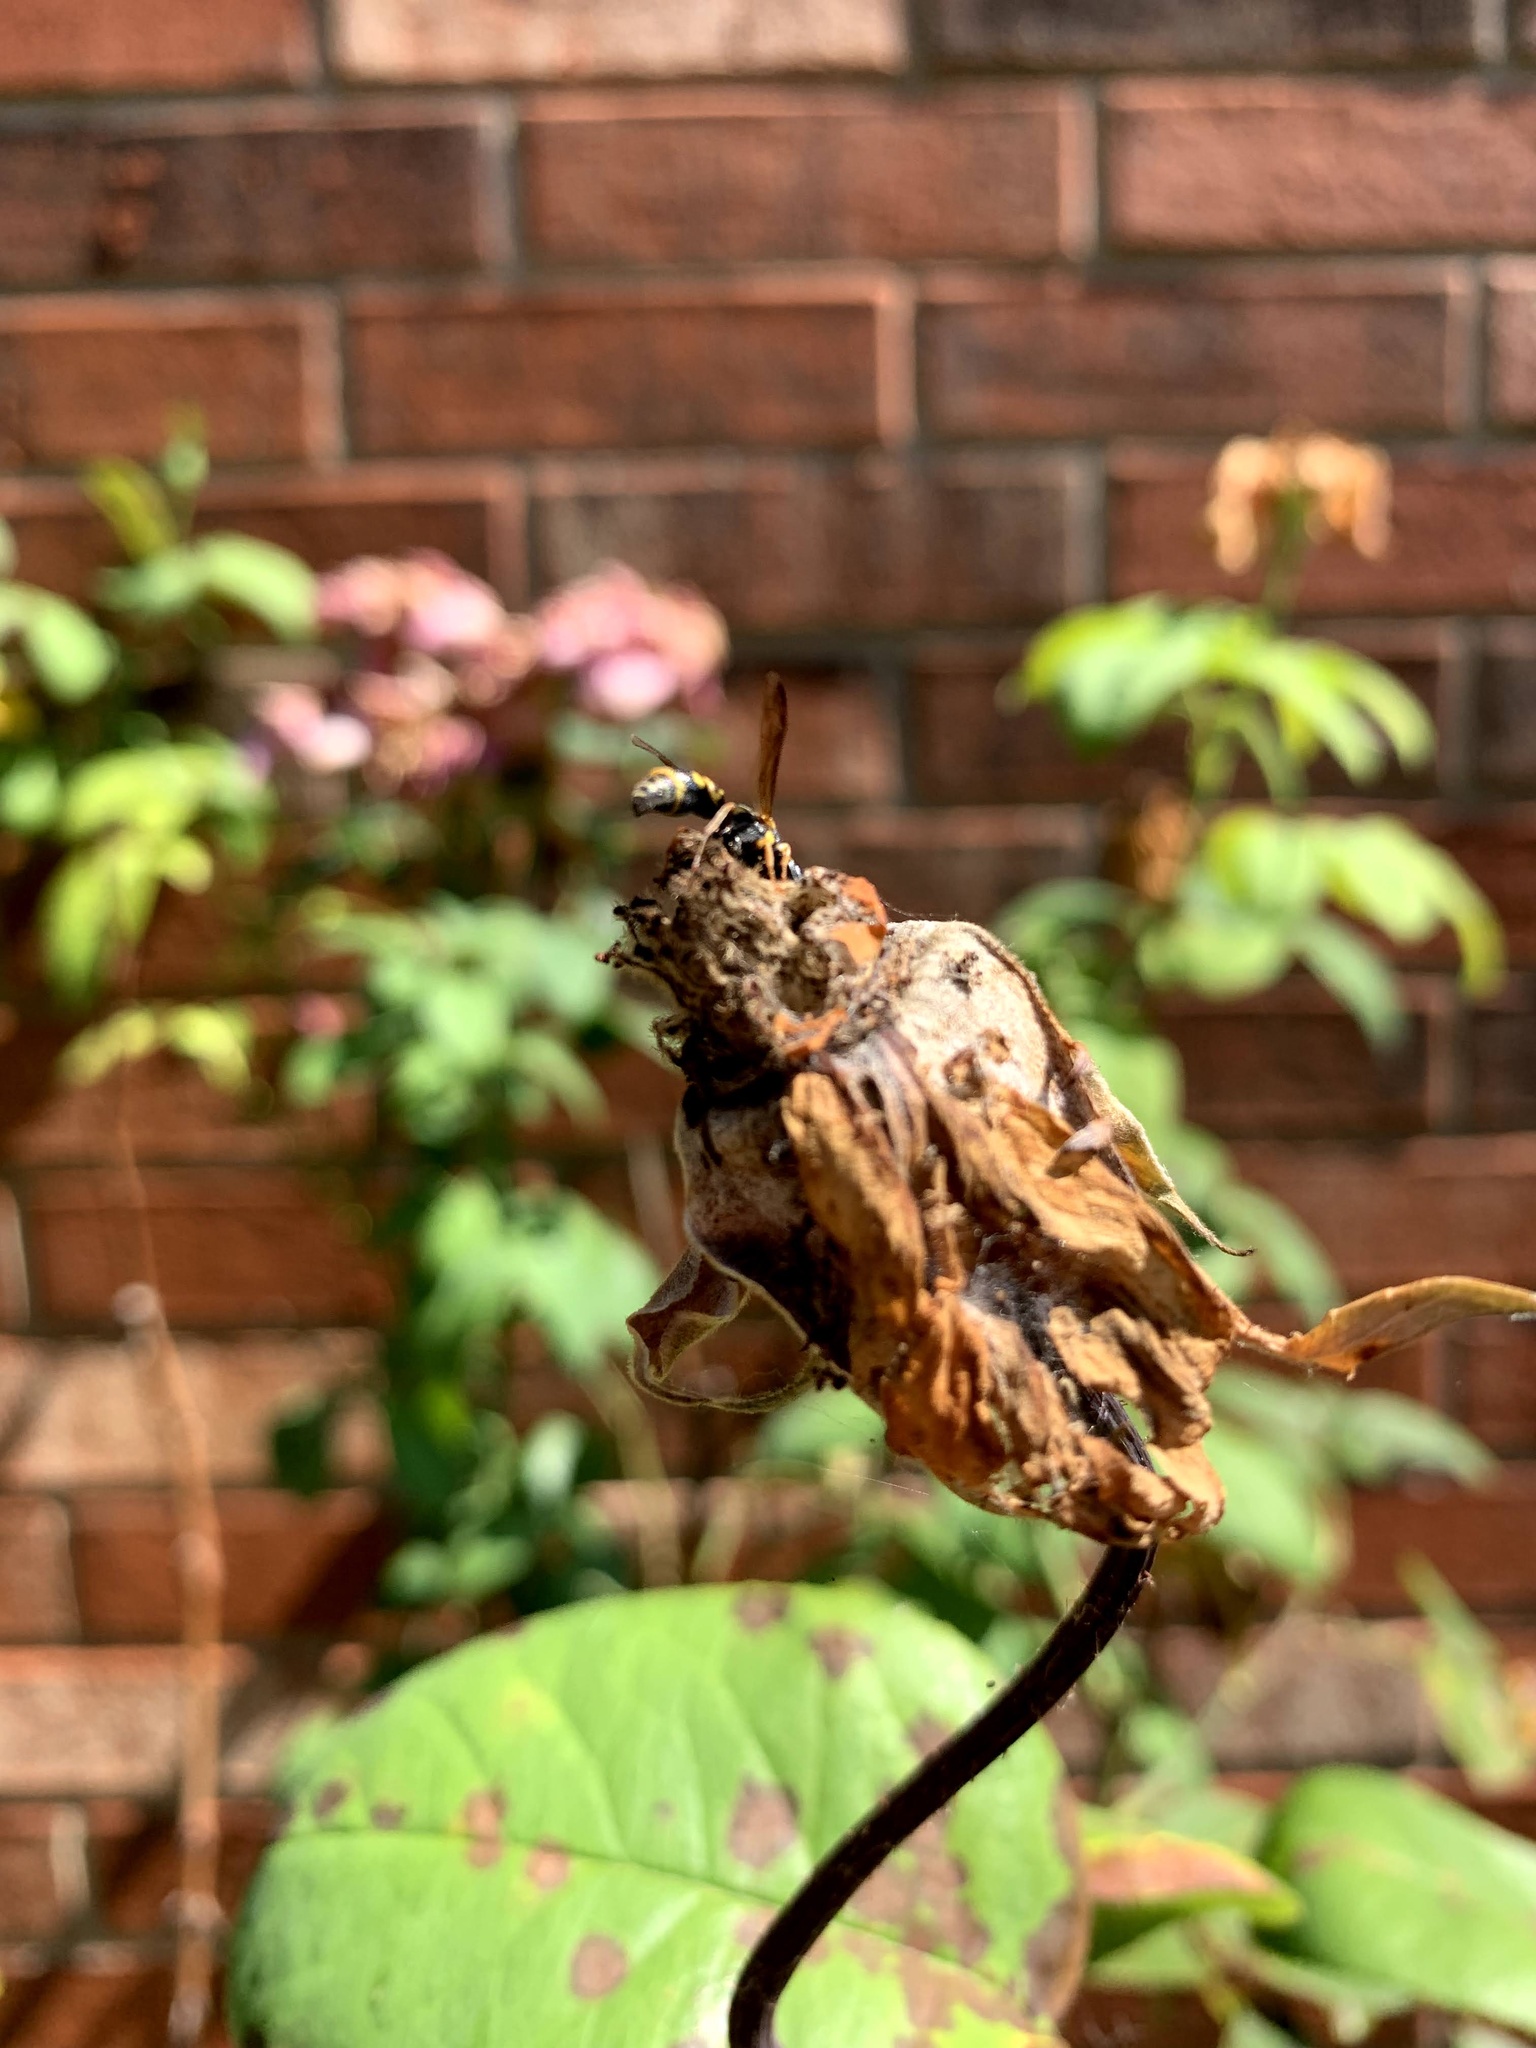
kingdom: Animalia
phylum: Arthropoda
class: Insecta
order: Hymenoptera
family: Eumenidae
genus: Parancistrocerus
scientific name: Parancistrocerus
